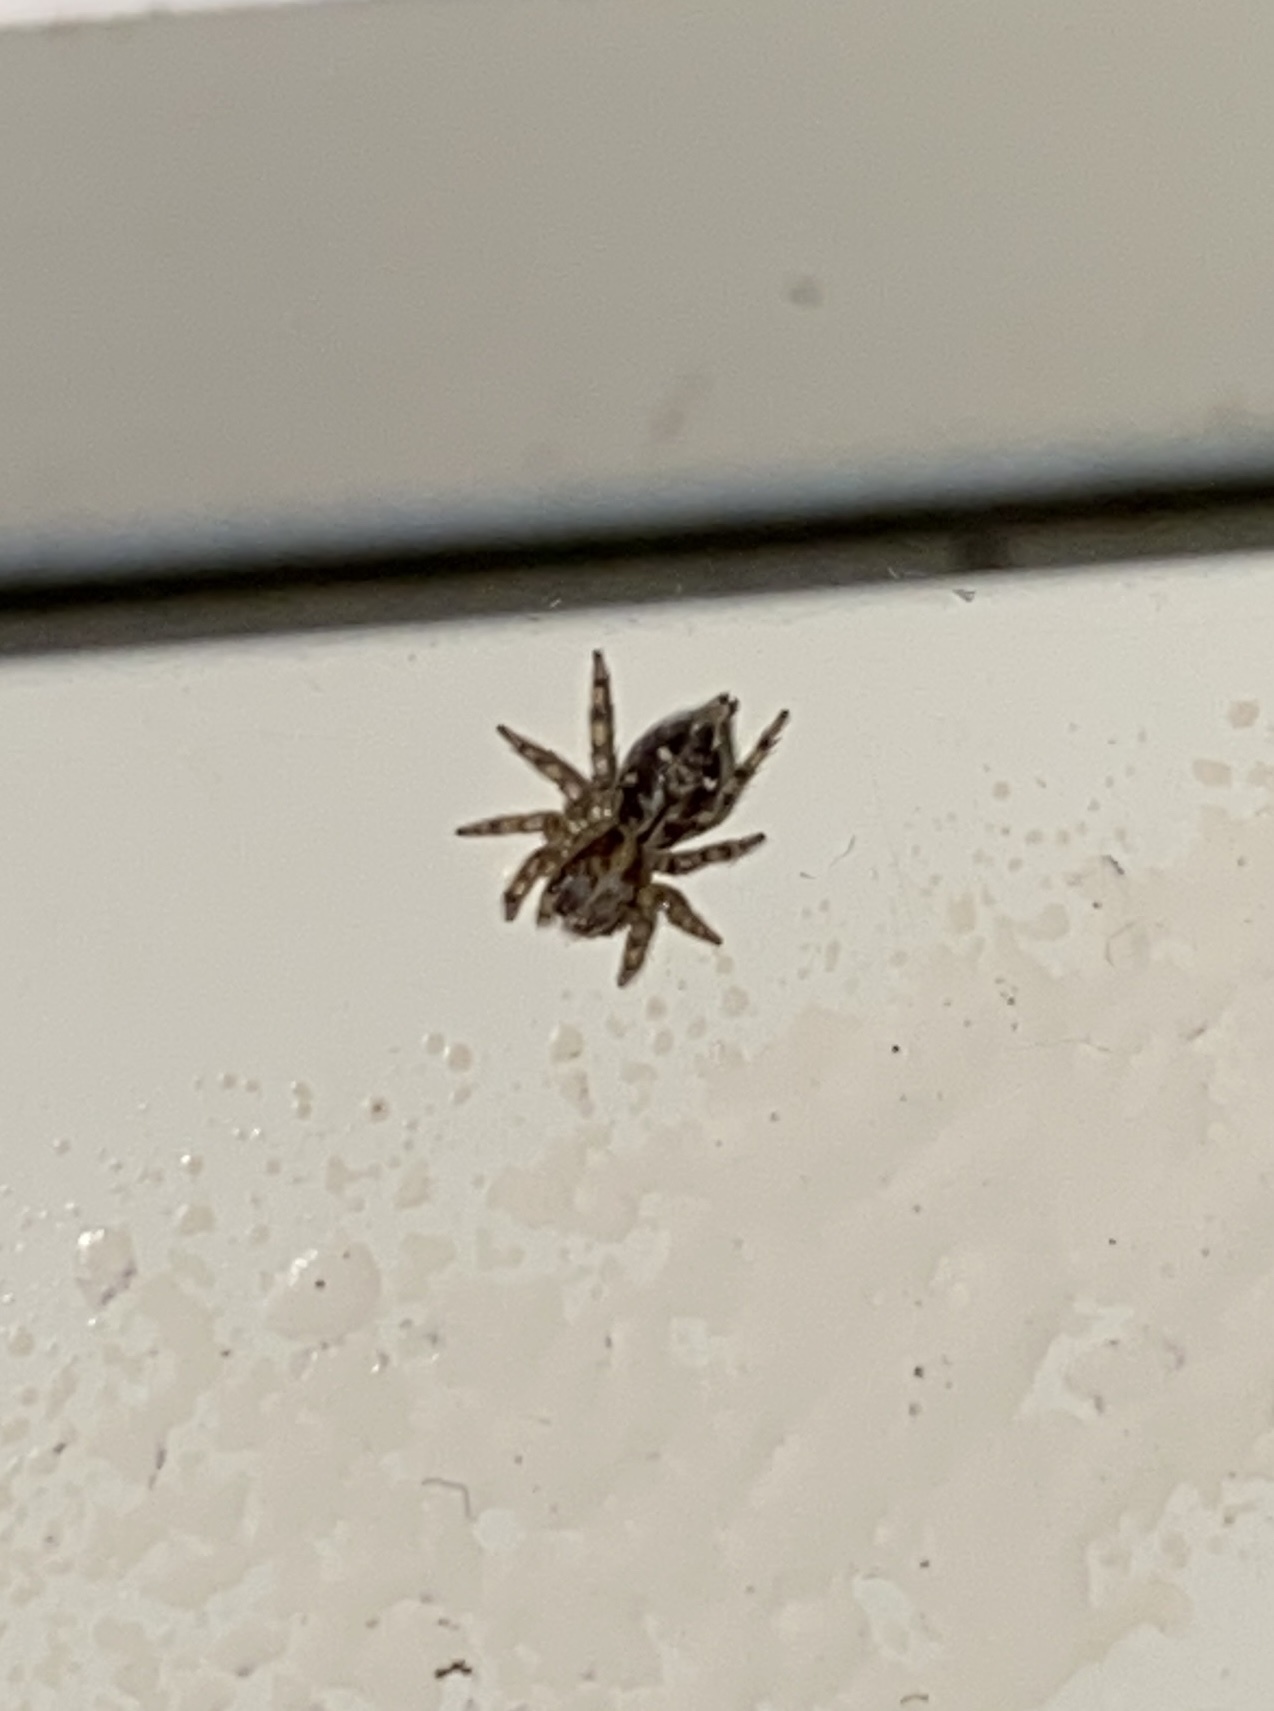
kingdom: Animalia
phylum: Arthropoda
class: Arachnida
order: Araneae
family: Salticidae
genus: Plexippus
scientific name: Plexippus paykulli
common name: Pantropical jumper
